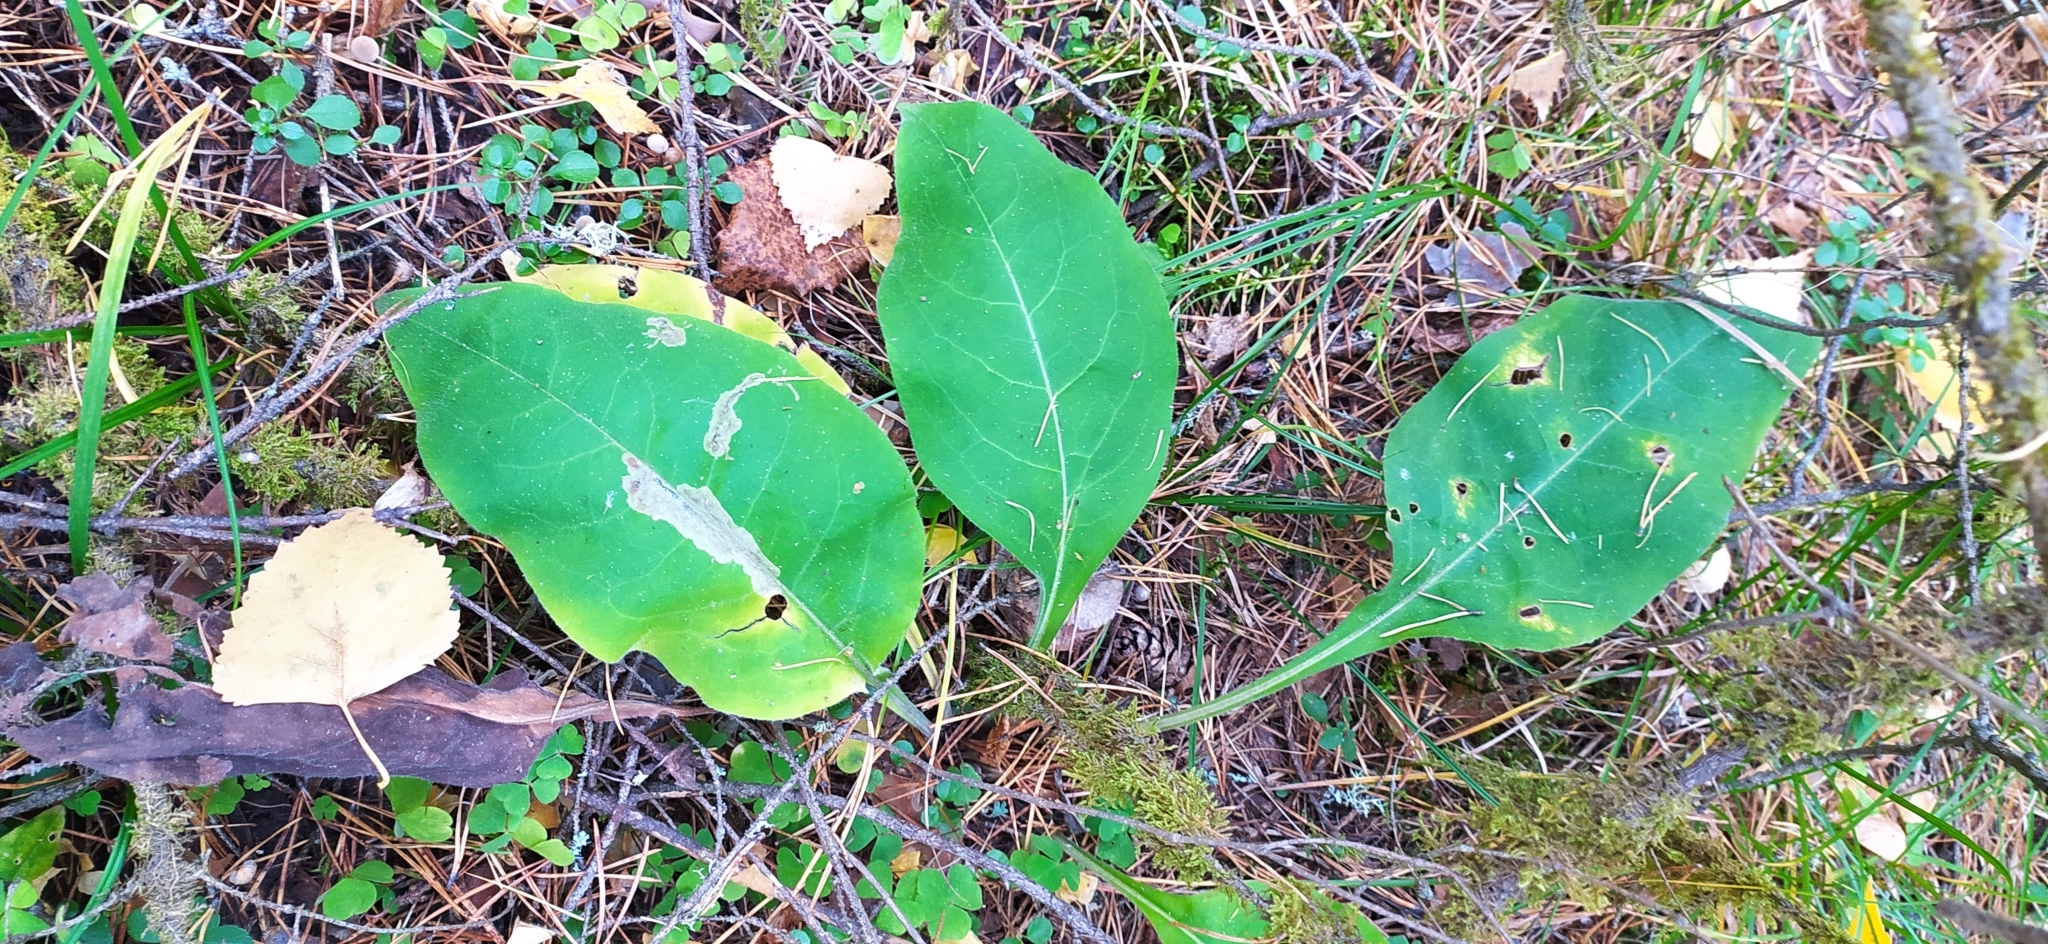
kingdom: Plantae
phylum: Tracheophyta
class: Magnoliopsida
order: Boraginales
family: Boraginaceae
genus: Pulmonaria
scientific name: Pulmonaria mollis
